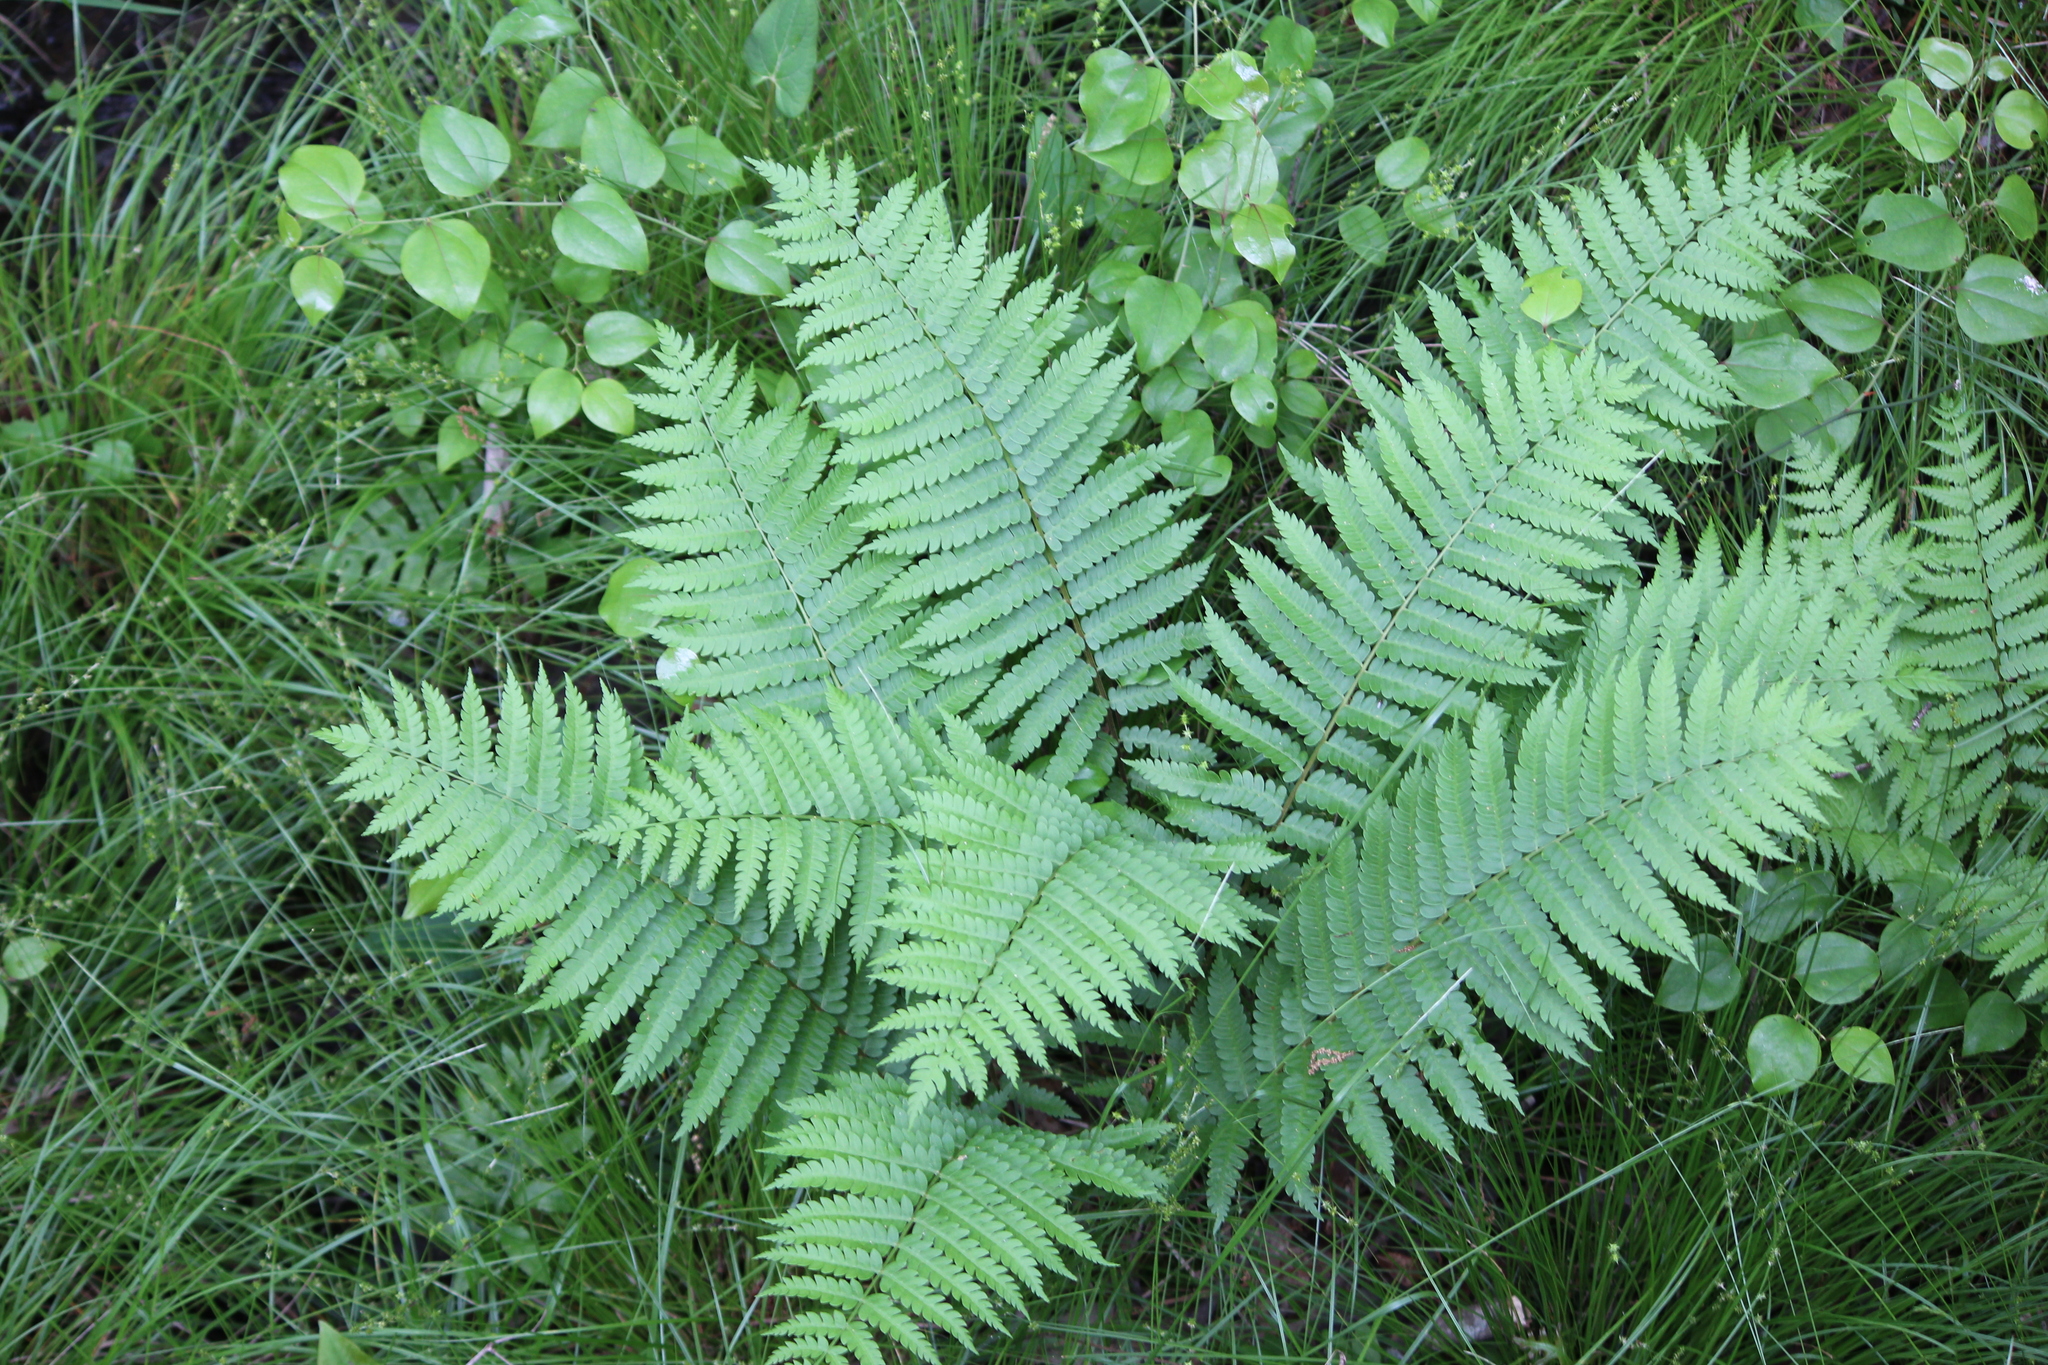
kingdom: Plantae
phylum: Tracheophyta
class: Polypodiopsida
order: Osmundales
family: Osmundaceae
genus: Osmundastrum
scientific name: Osmundastrum cinnamomeum
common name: Cinnamon fern
